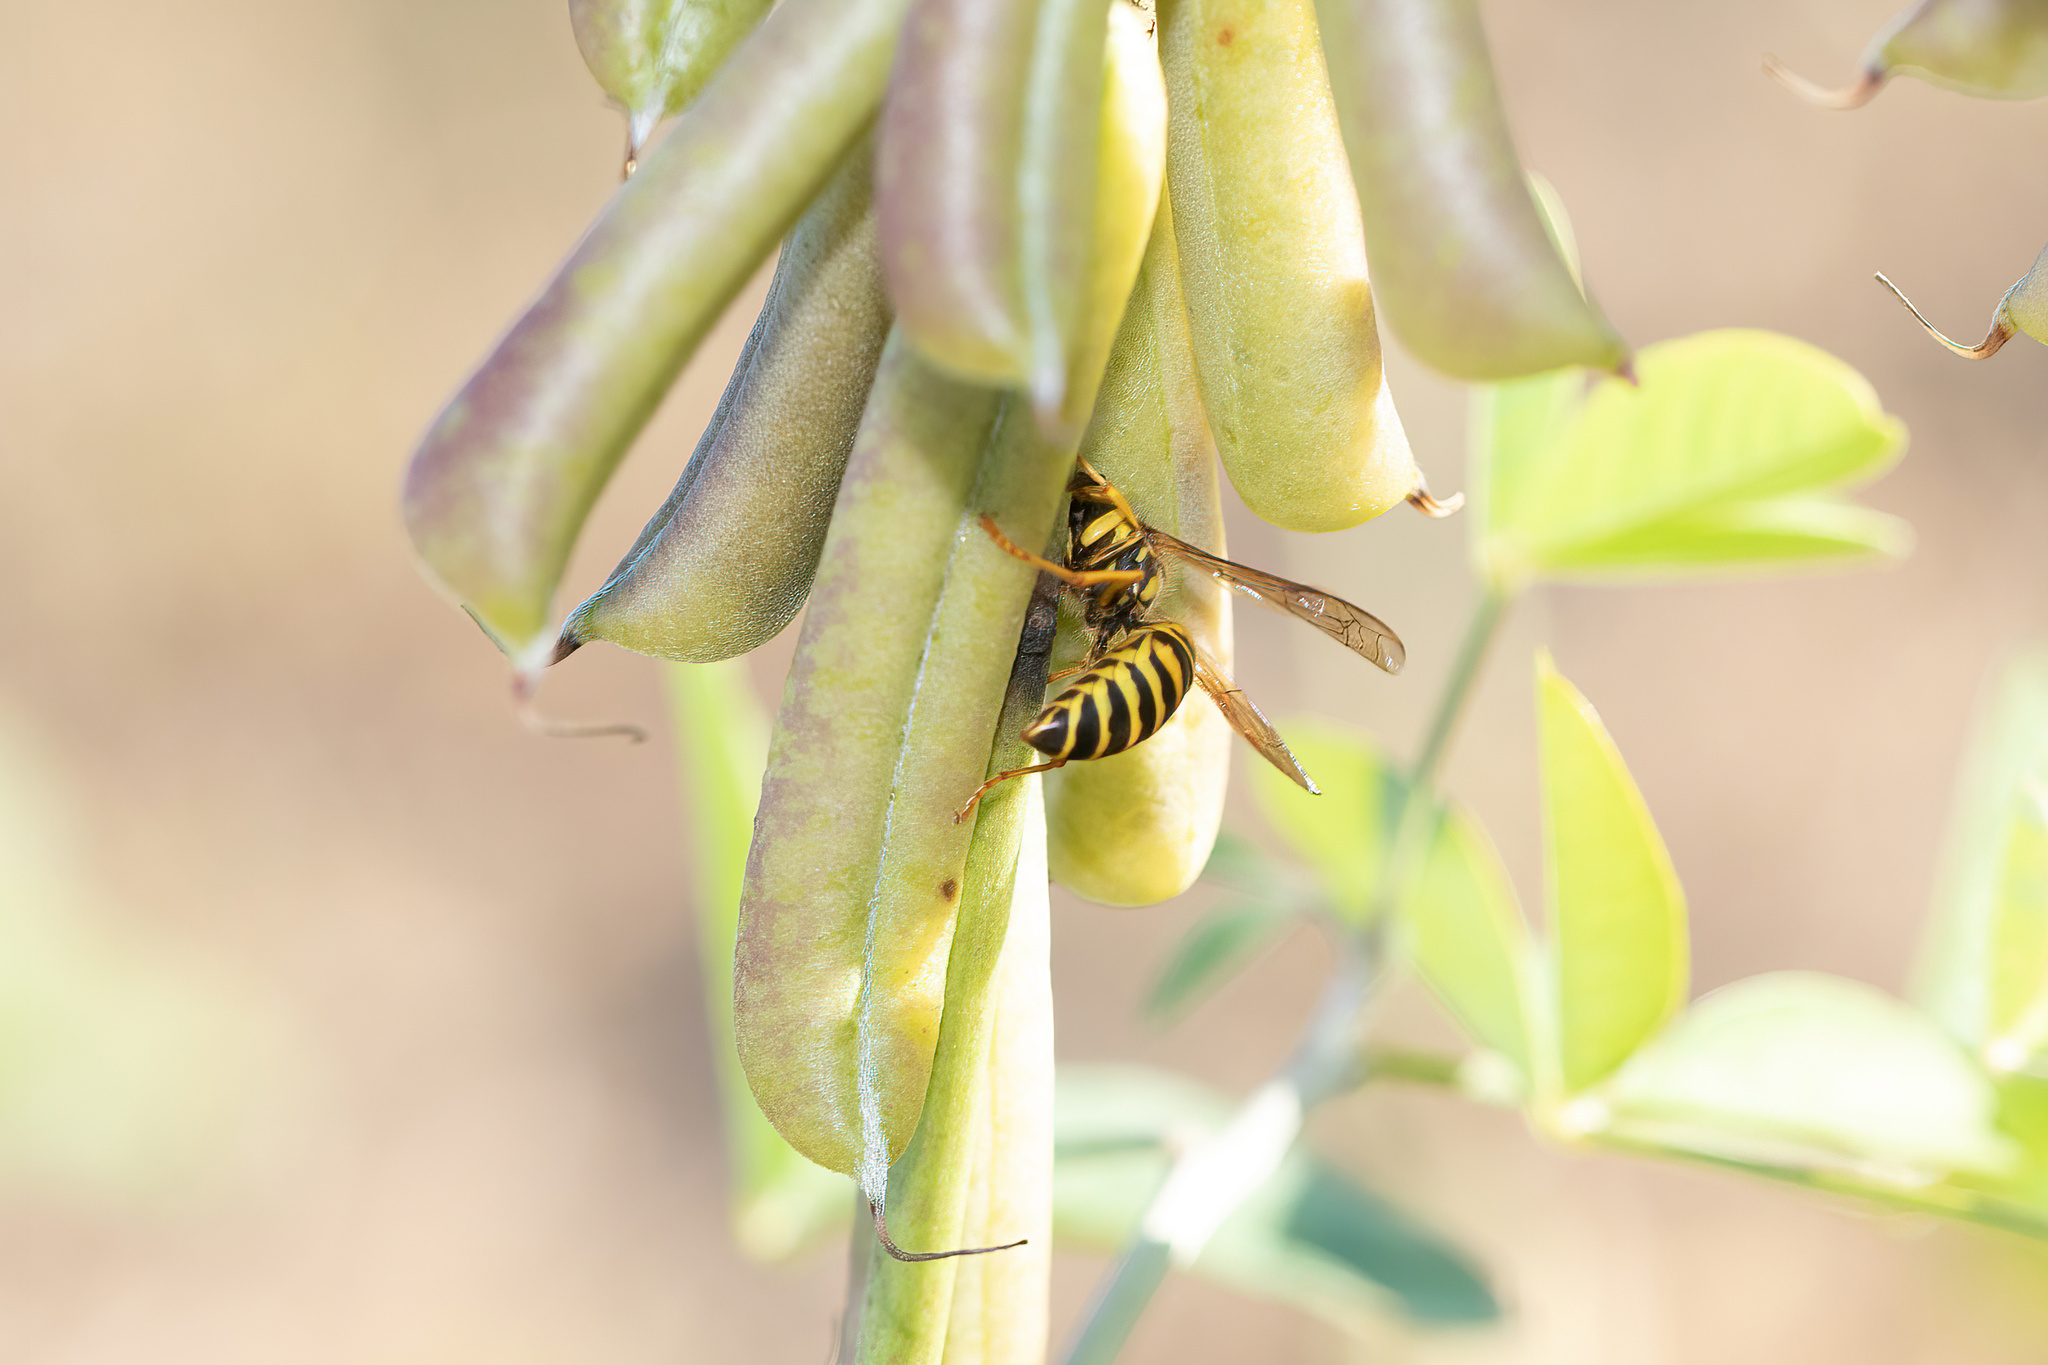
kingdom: Animalia
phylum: Arthropoda
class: Insecta
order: Hymenoptera
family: Vespidae
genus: Vespula
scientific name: Vespula squamosa
